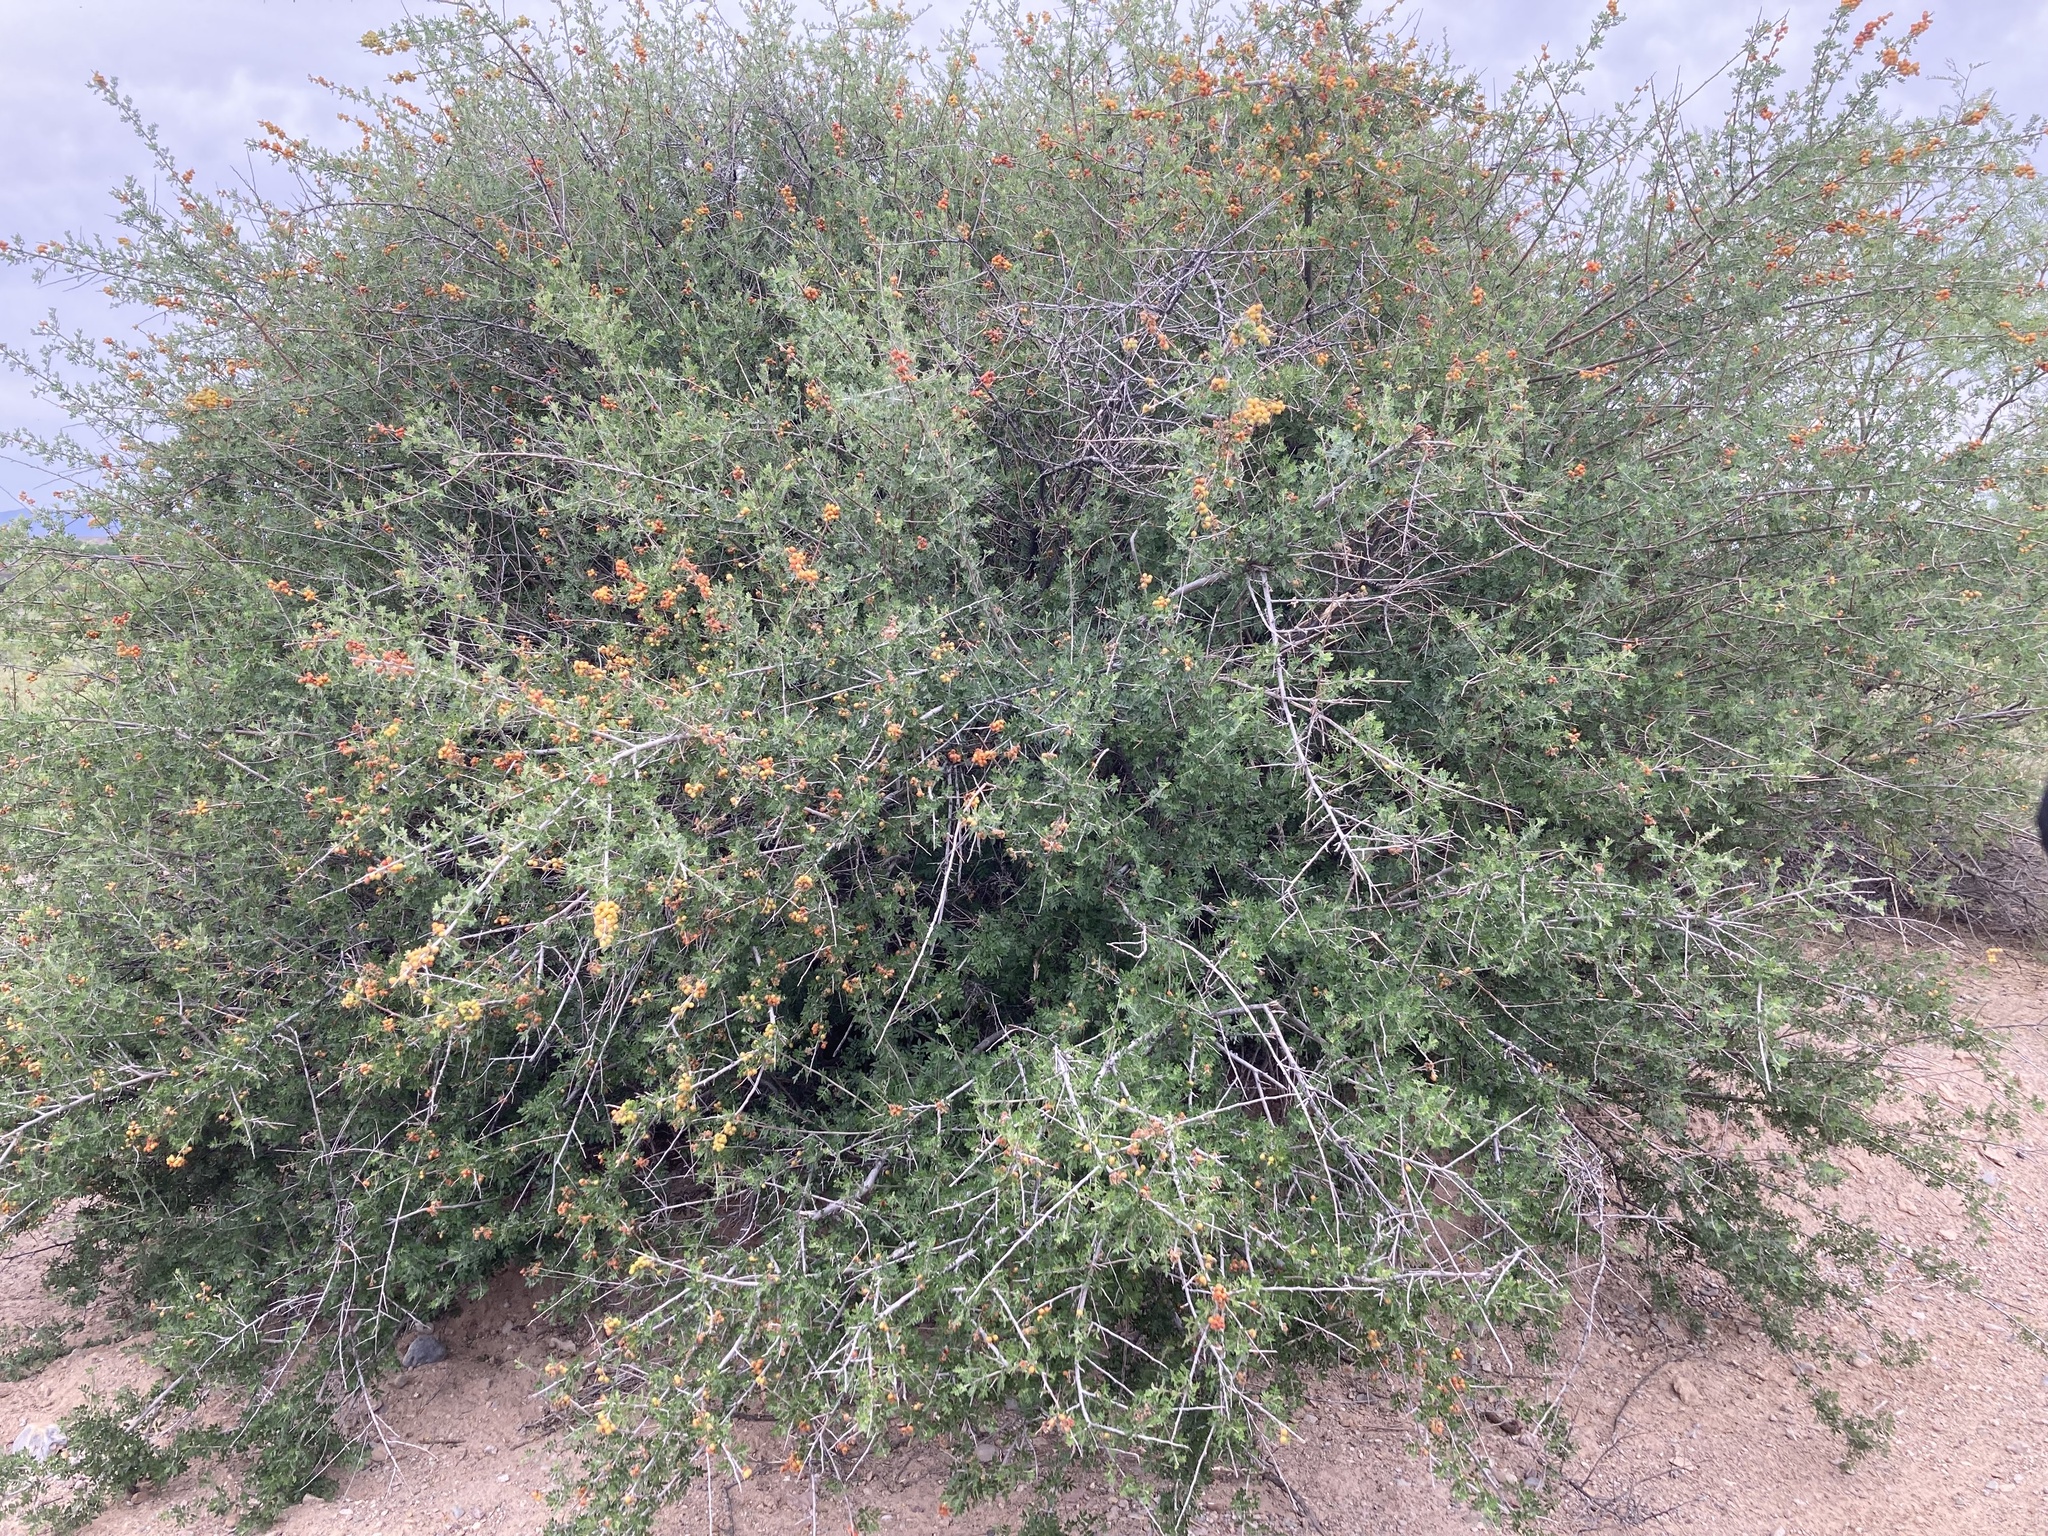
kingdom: Plantae
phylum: Tracheophyta
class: Magnoliopsida
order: Sapindales
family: Anacardiaceae
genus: Rhus
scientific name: Rhus microphylla
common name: Desert sumac
